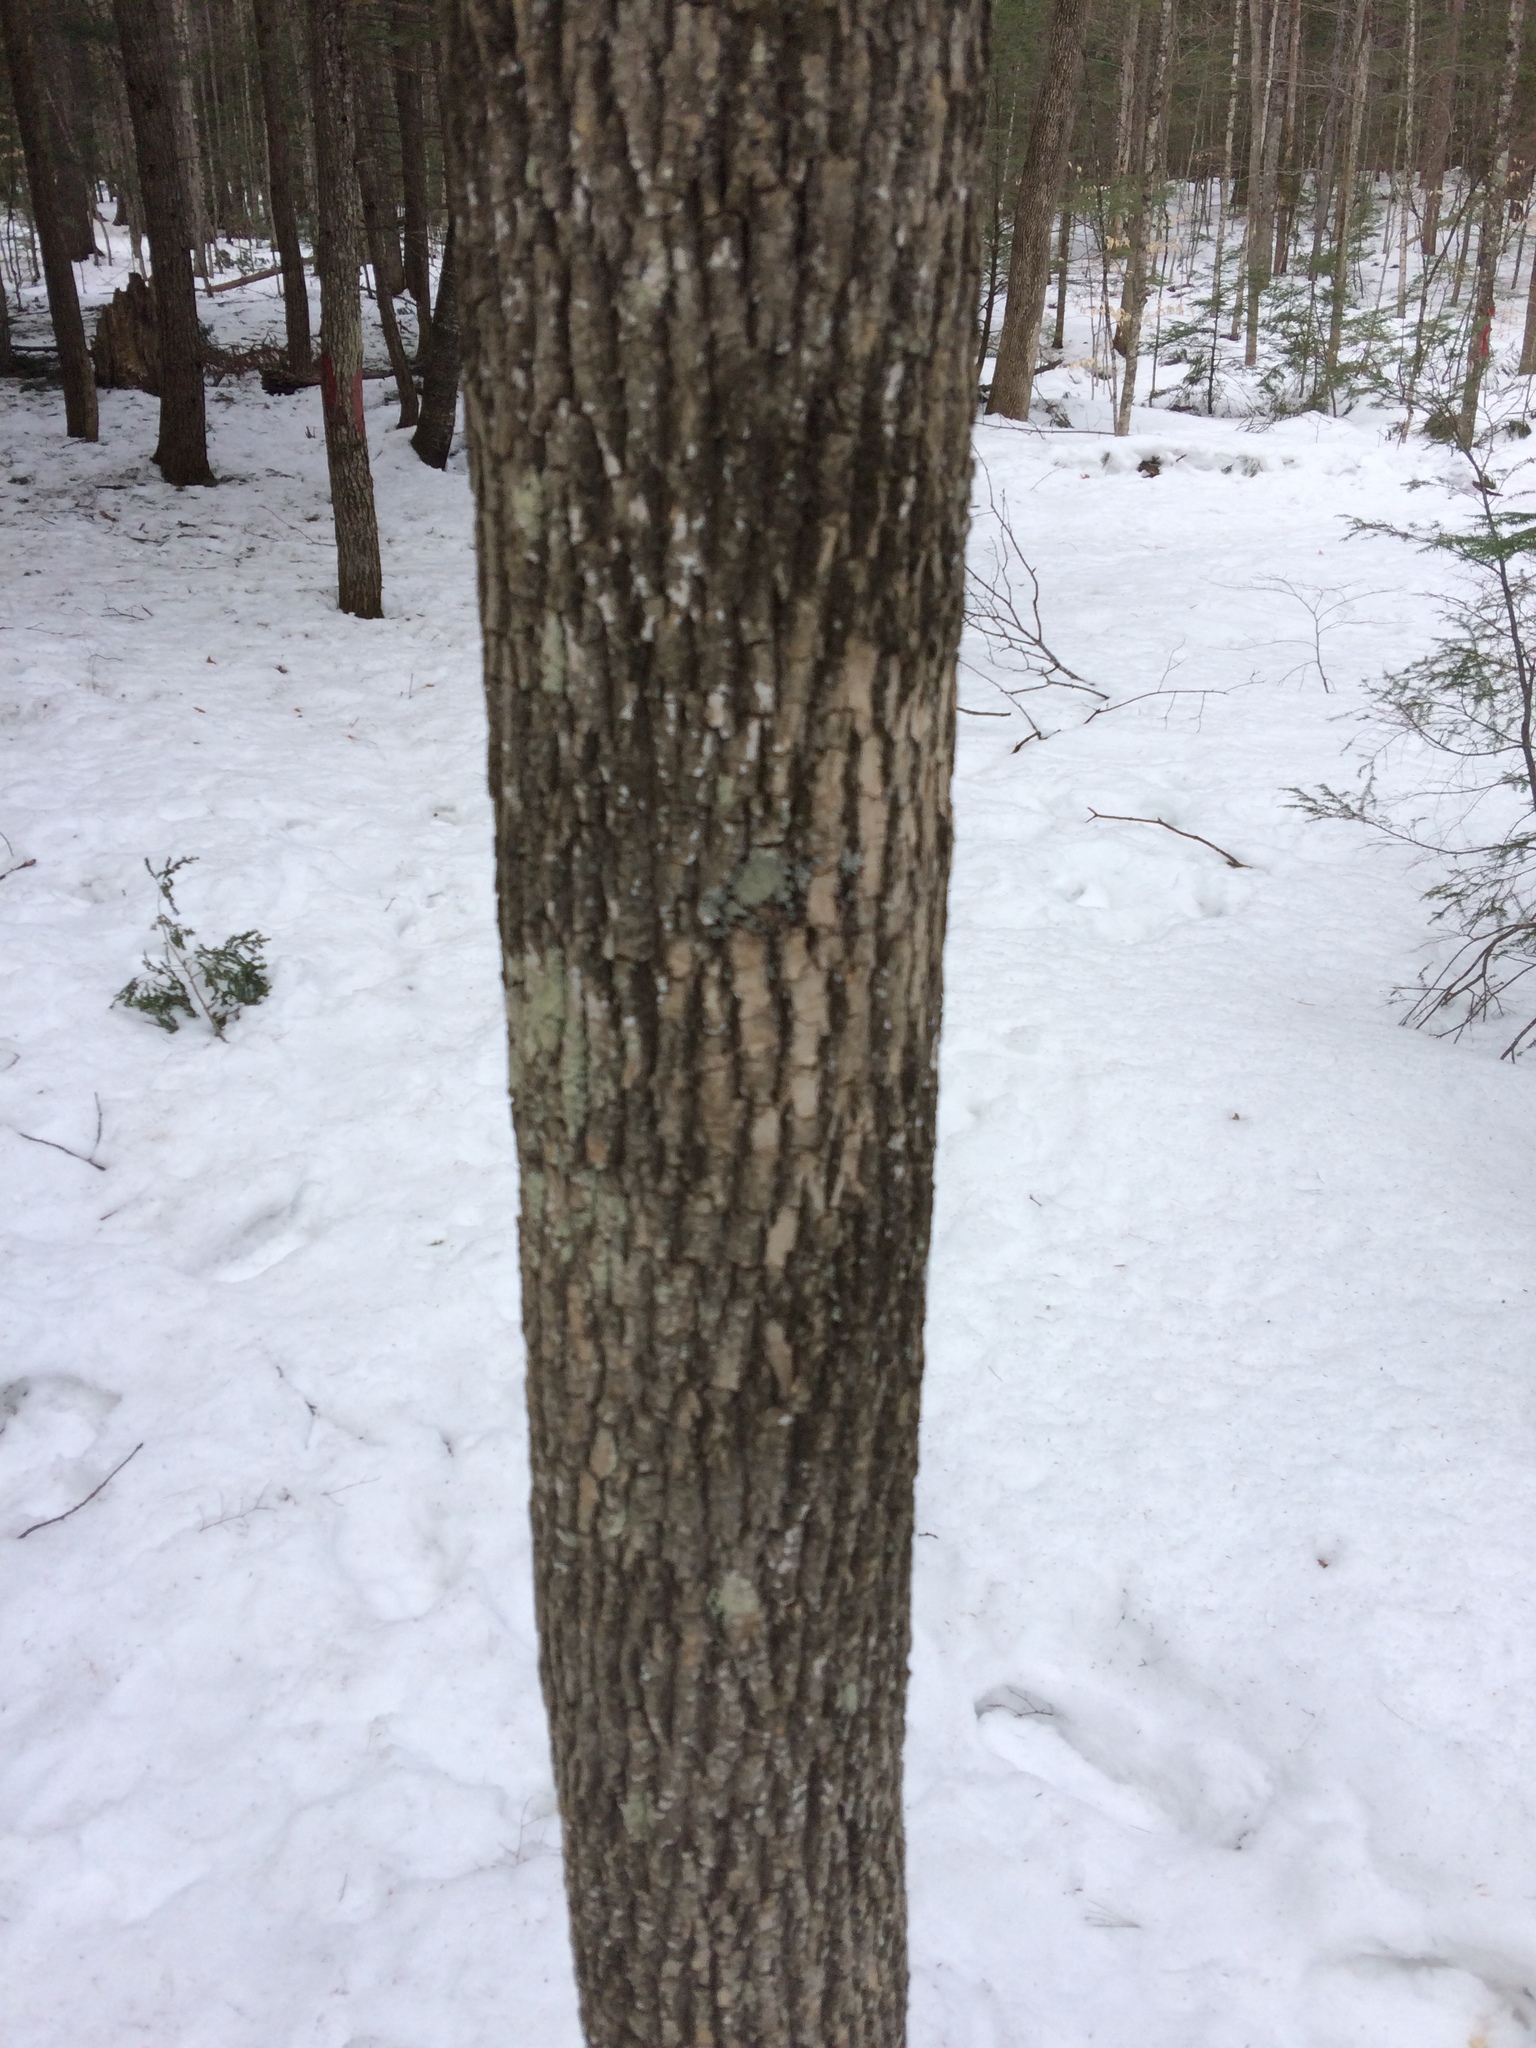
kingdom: Plantae
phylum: Tracheophyta
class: Magnoliopsida
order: Lamiales
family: Oleaceae
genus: Fraxinus
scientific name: Fraxinus americana
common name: White ash
